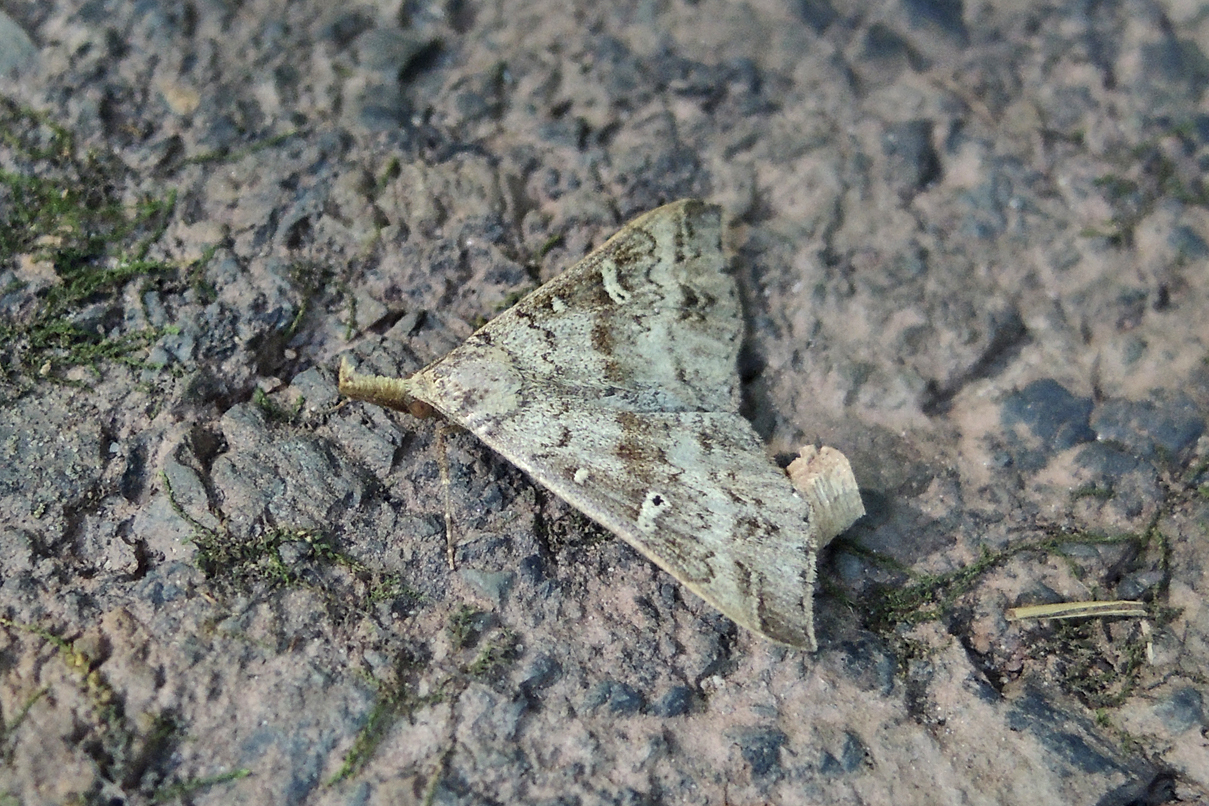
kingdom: Animalia
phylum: Arthropoda
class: Insecta
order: Lepidoptera
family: Erebidae
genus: Renia
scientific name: Renia discoloralis
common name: Discolored renia moth
